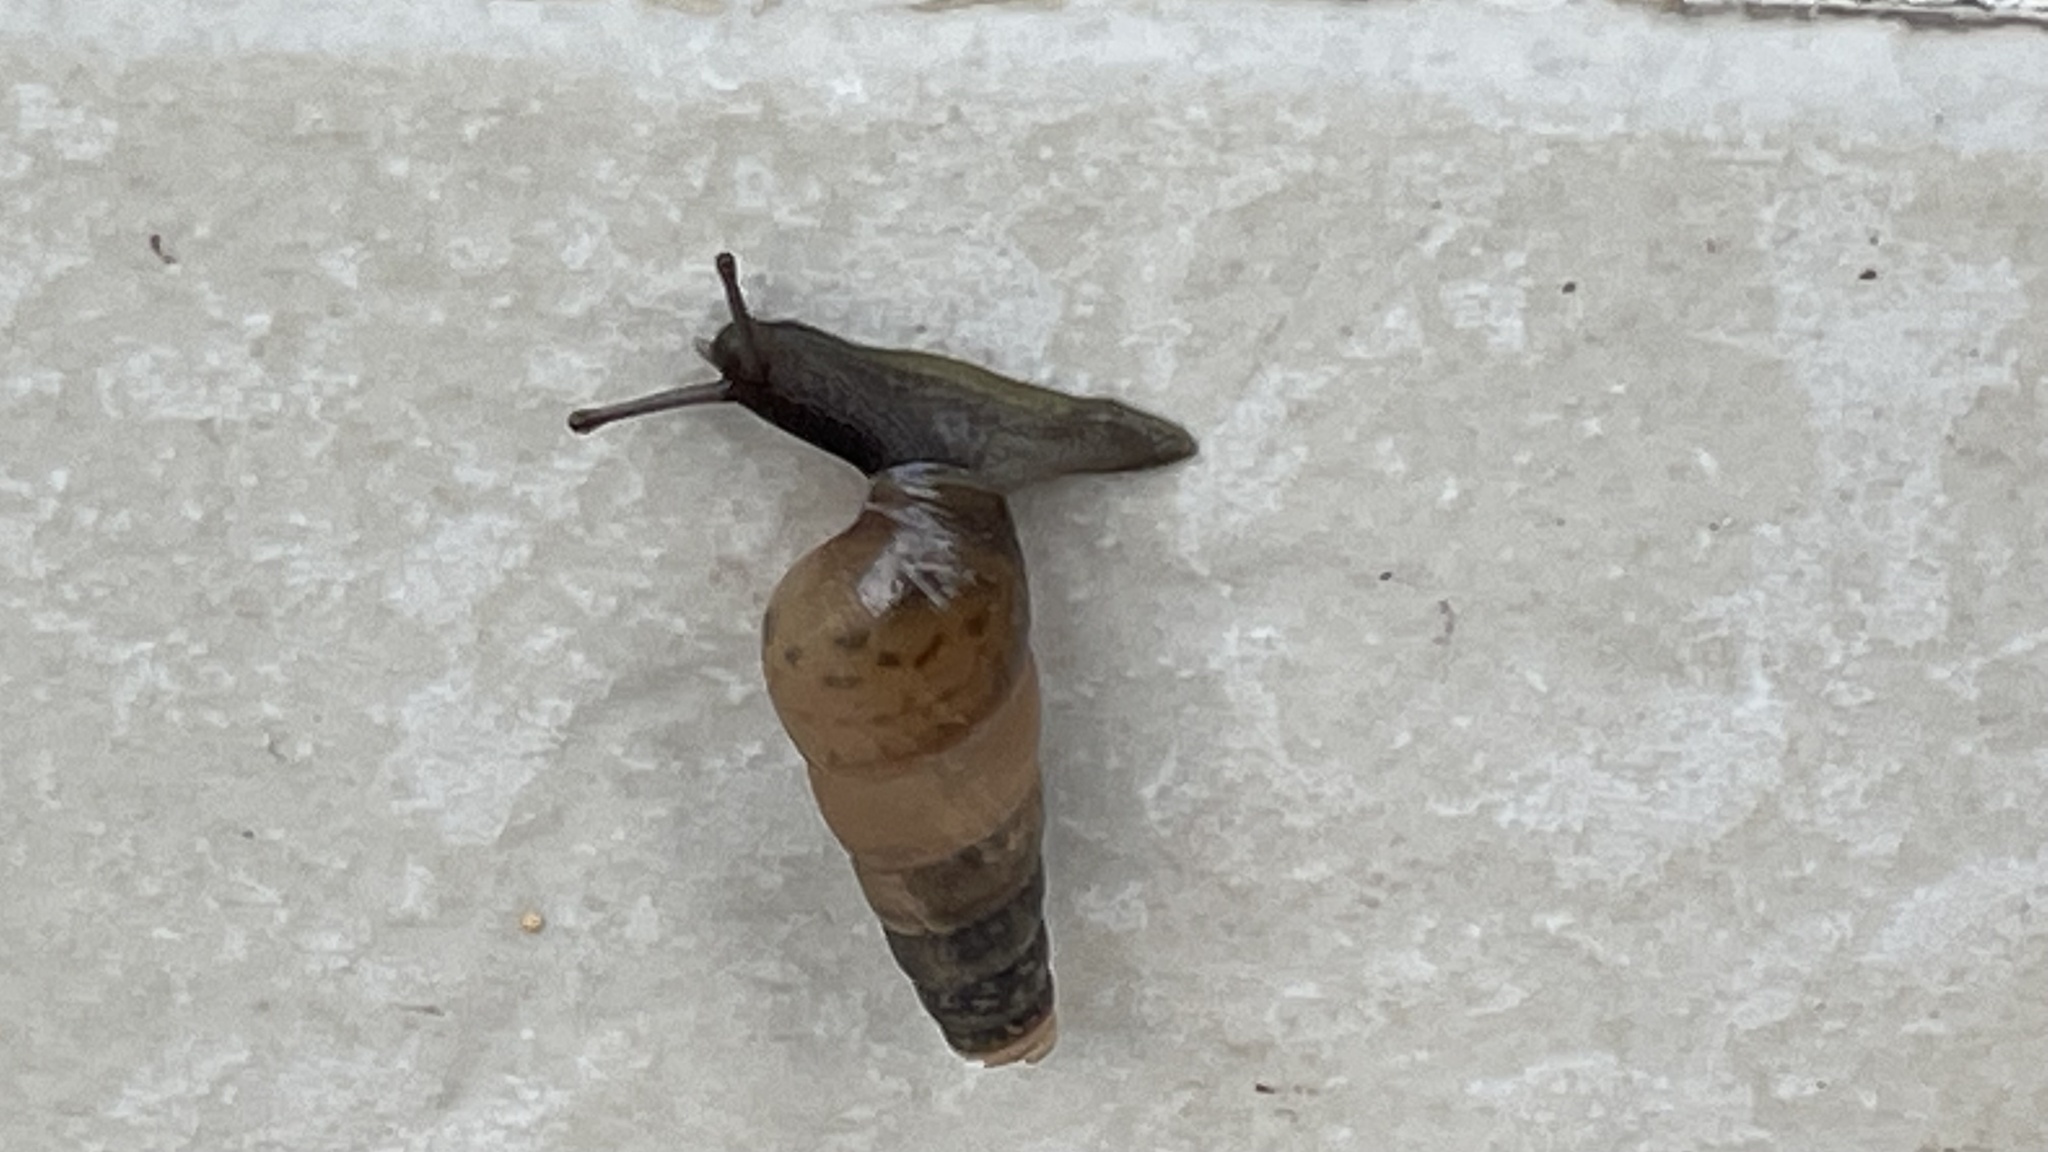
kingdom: Animalia
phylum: Mollusca
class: Gastropoda
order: Stylommatophora
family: Achatinidae
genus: Rumina
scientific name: Rumina decollata
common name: Decollate snail
